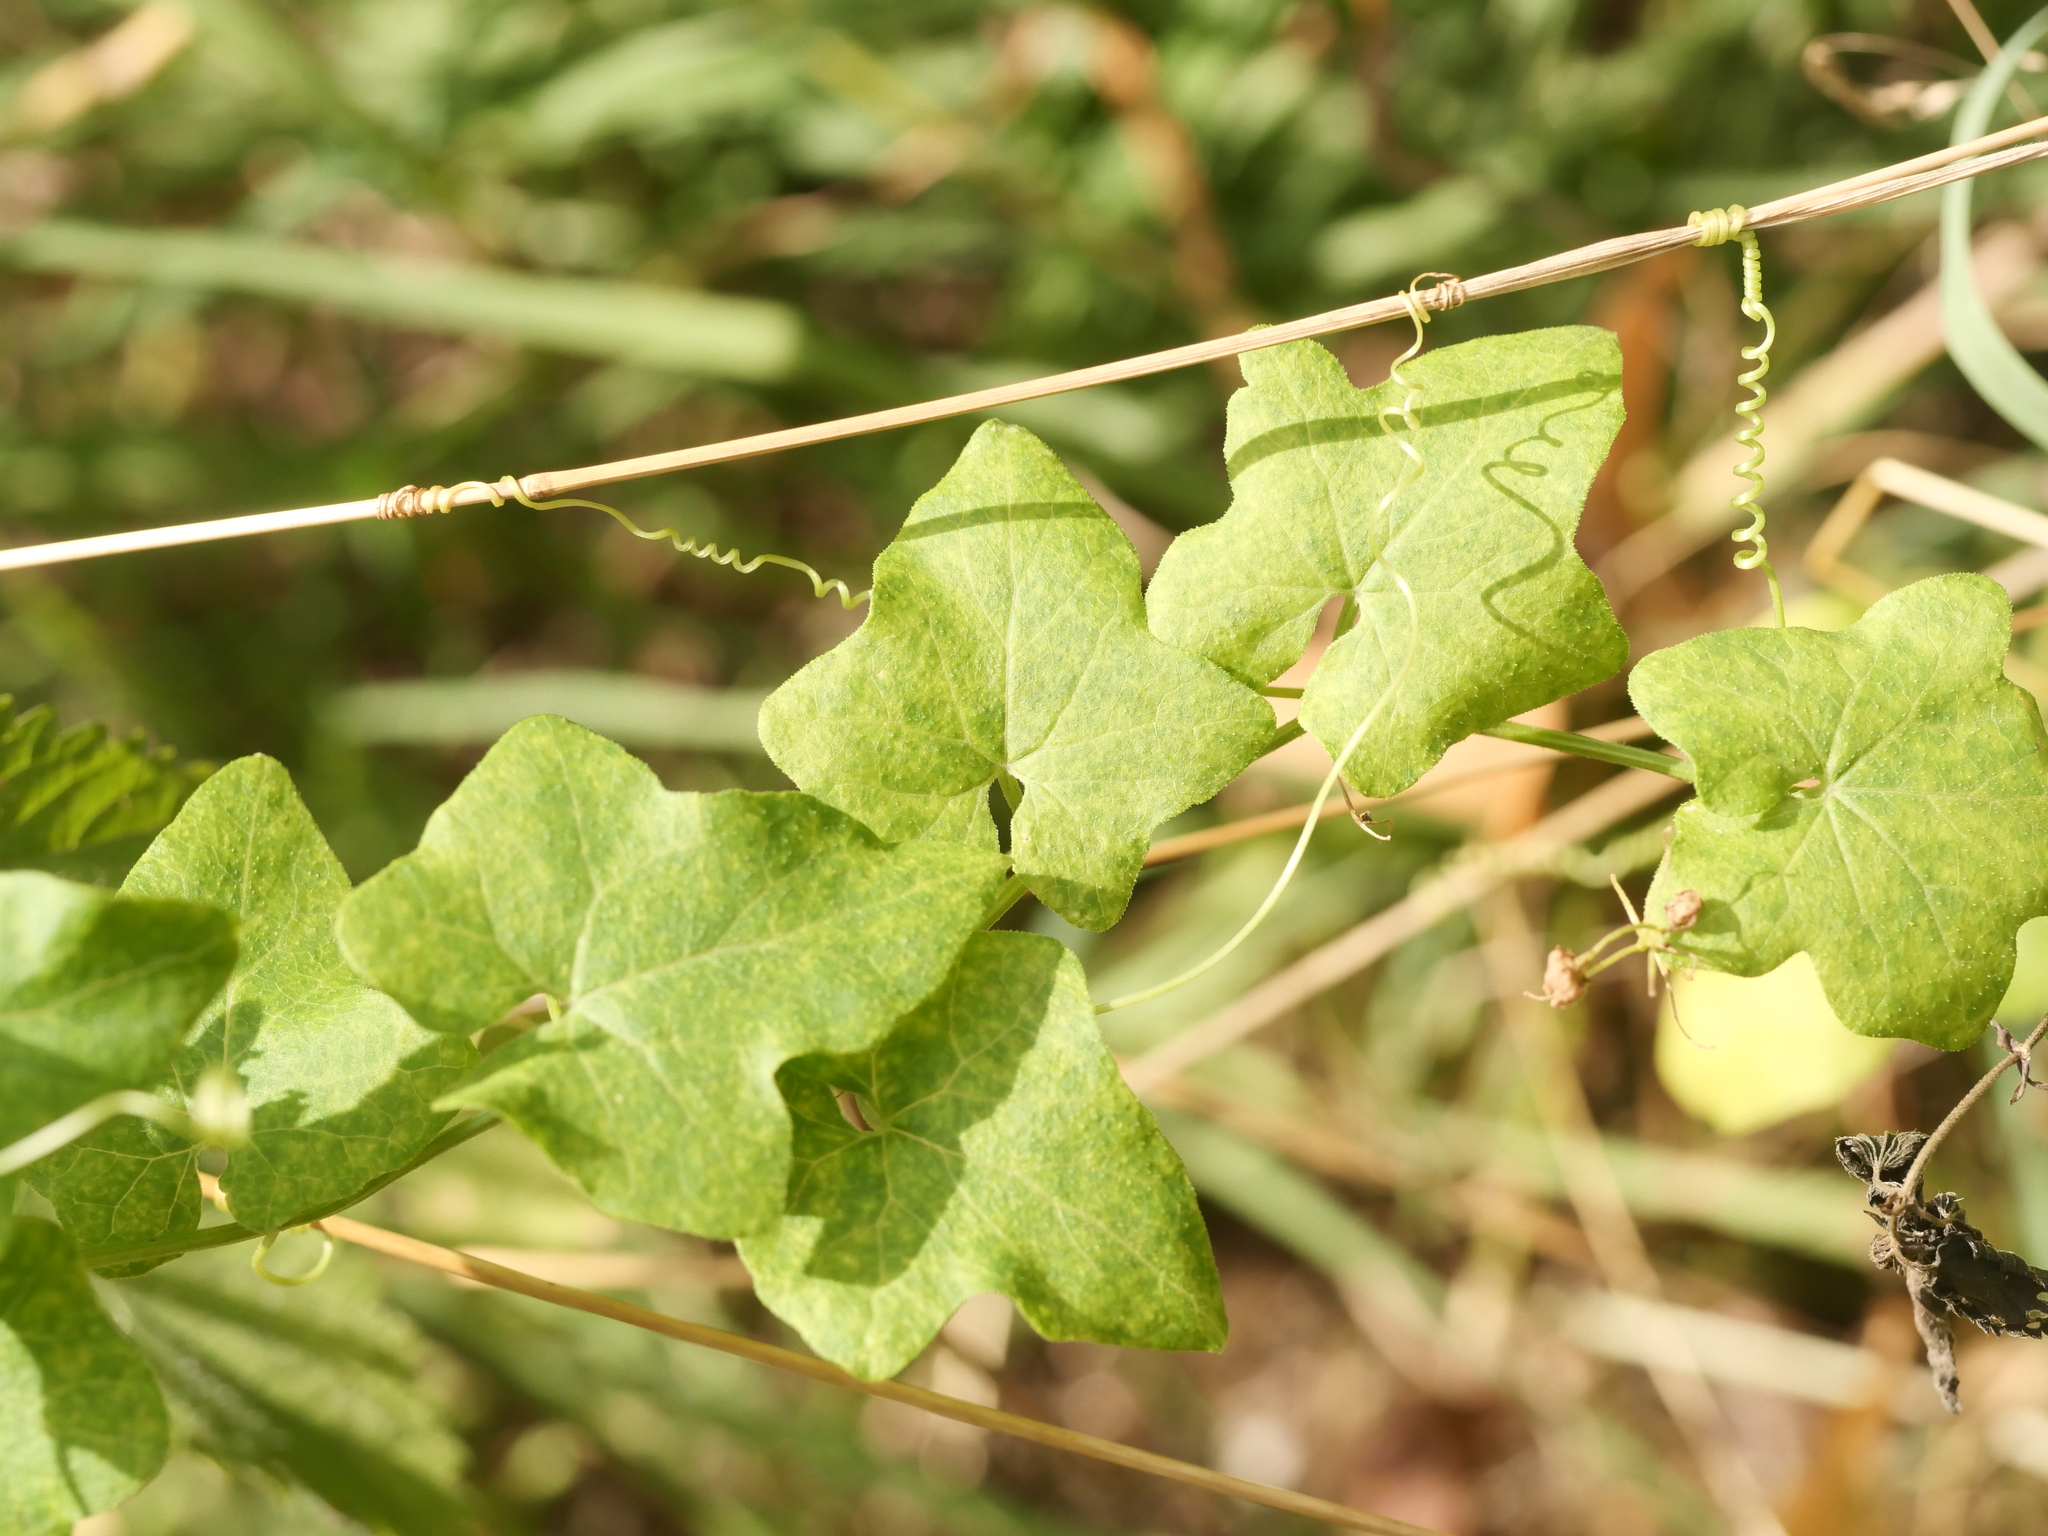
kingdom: Plantae
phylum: Tracheophyta
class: Magnoliopsida
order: Cucurbitales
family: Cucurbitaceae
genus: Bryonia
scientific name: Bryonia cretica
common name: Cretan bryony
